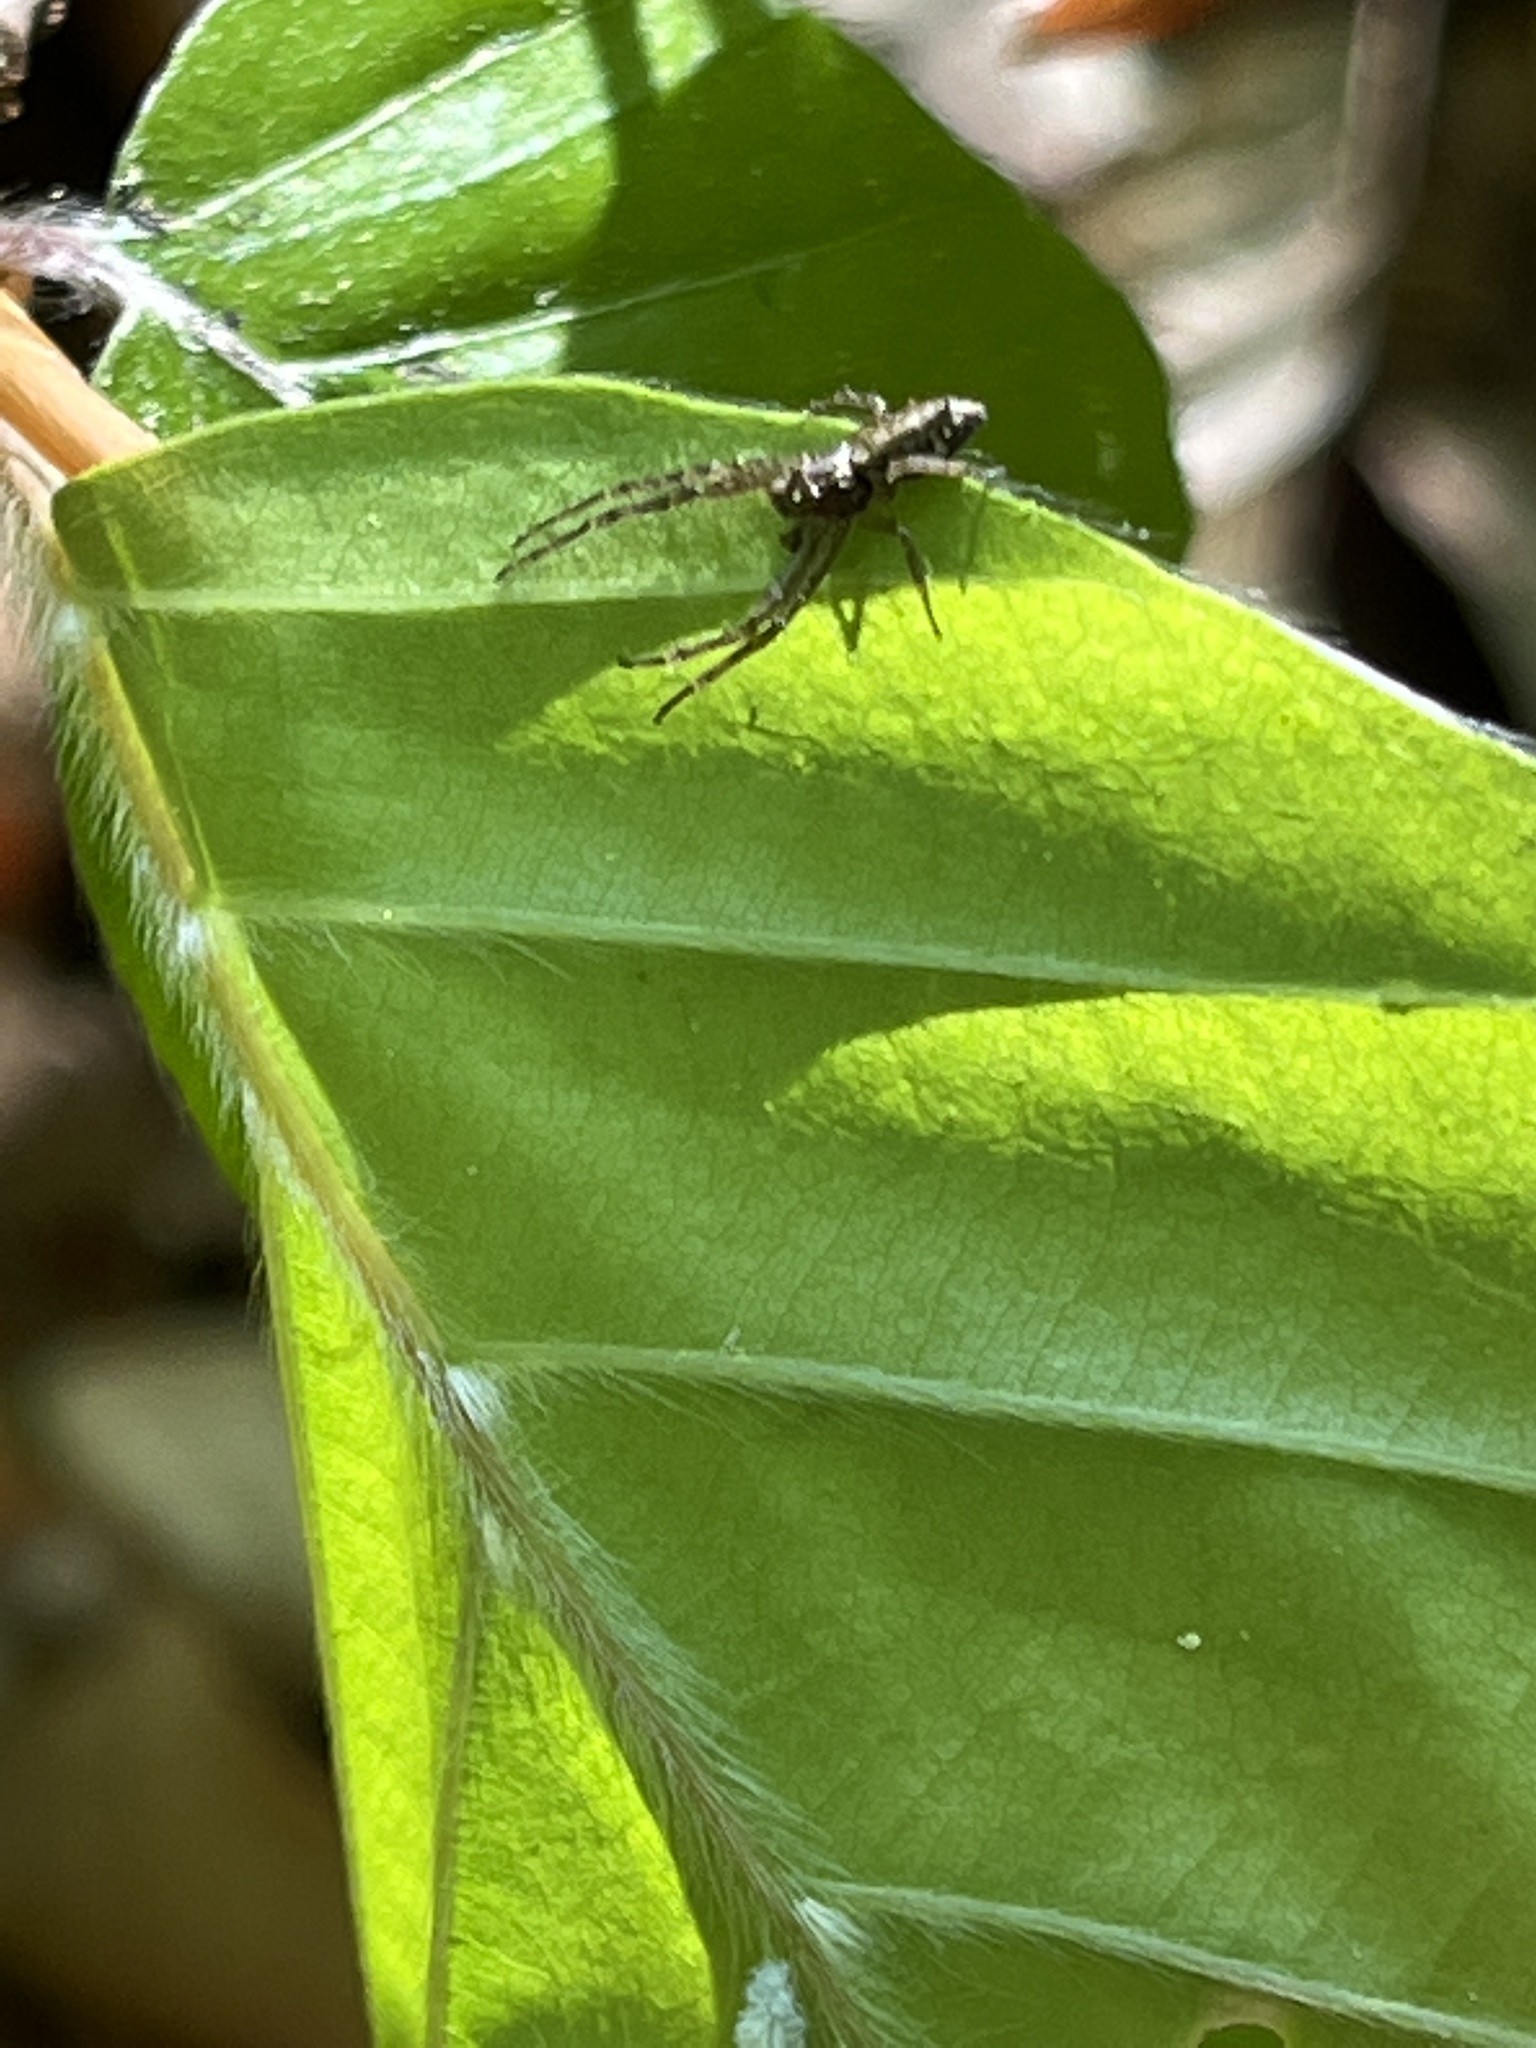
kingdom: Animalia
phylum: Arthropoda
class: Arachnida
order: Araneae
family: Thomisidae
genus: Tmarus
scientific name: Tmarus piger
